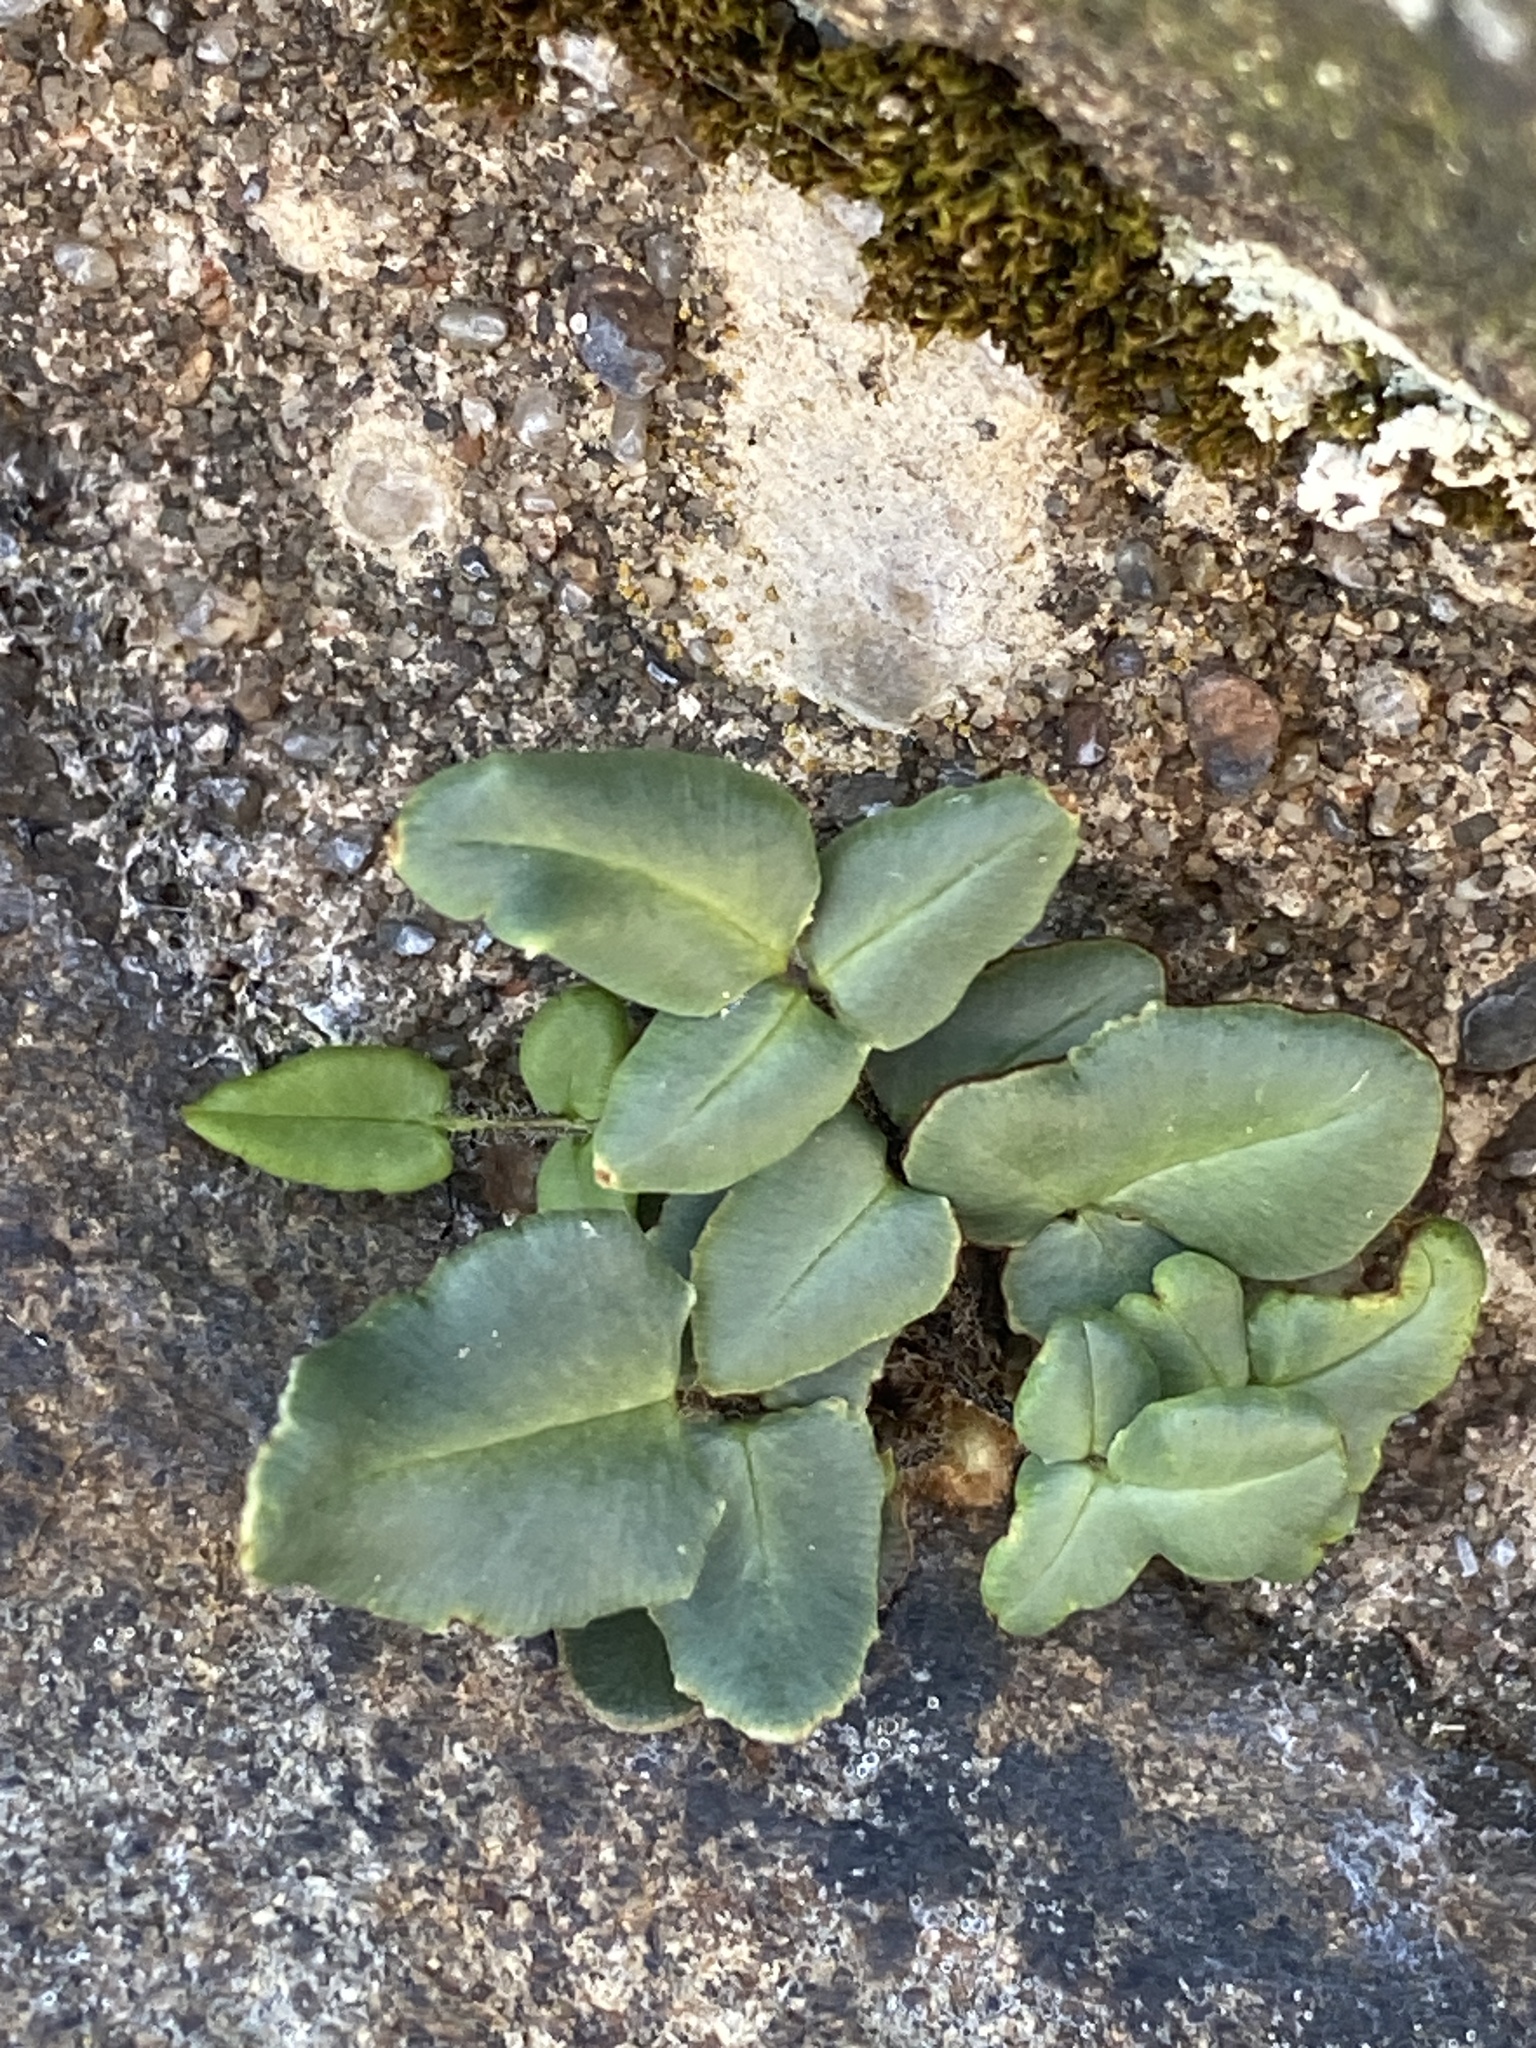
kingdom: Plantae
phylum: Tracheophyta
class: Polypodiopsida
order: Polypodiales
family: Pteridaceae
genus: Pellaea
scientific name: Pellaea atropurpurea
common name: Hairy cliffbrake
